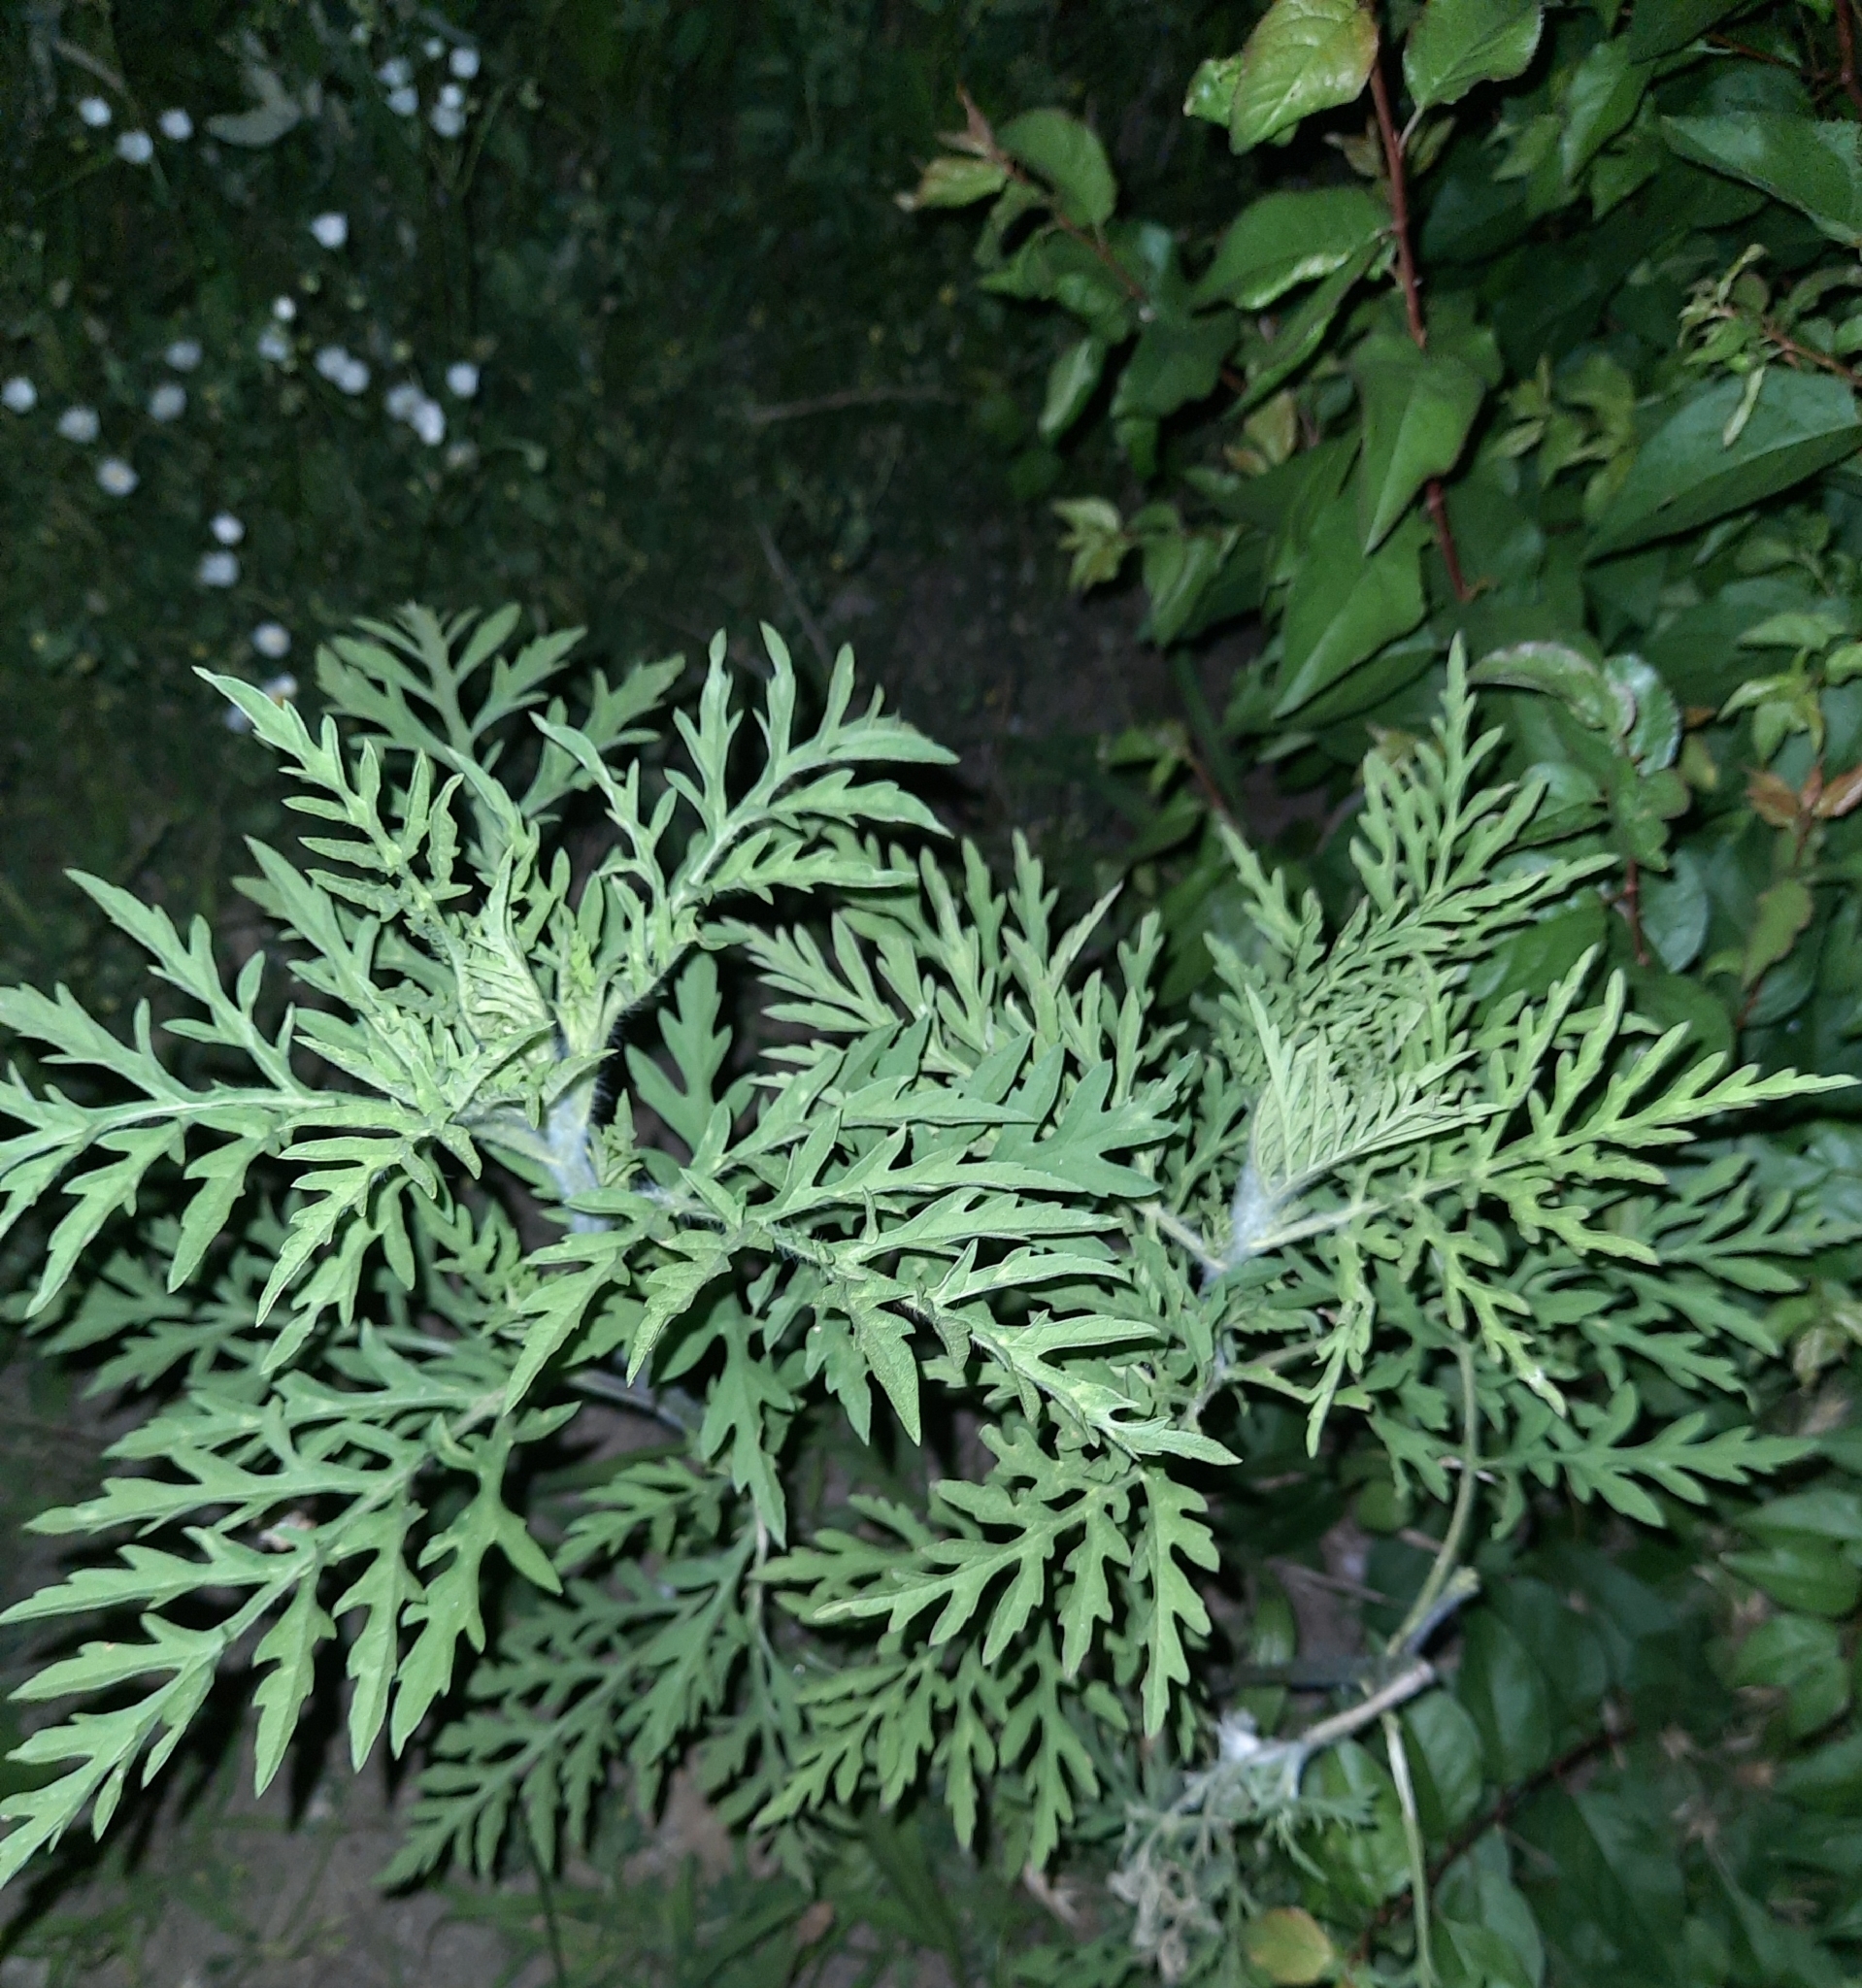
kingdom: Plantae
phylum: Tracheophyta
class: Magnoliopsida
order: Asterales
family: Asteraceae
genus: Ambrosia
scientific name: Ambrosia artemisiifolia
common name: Annual ragweed
